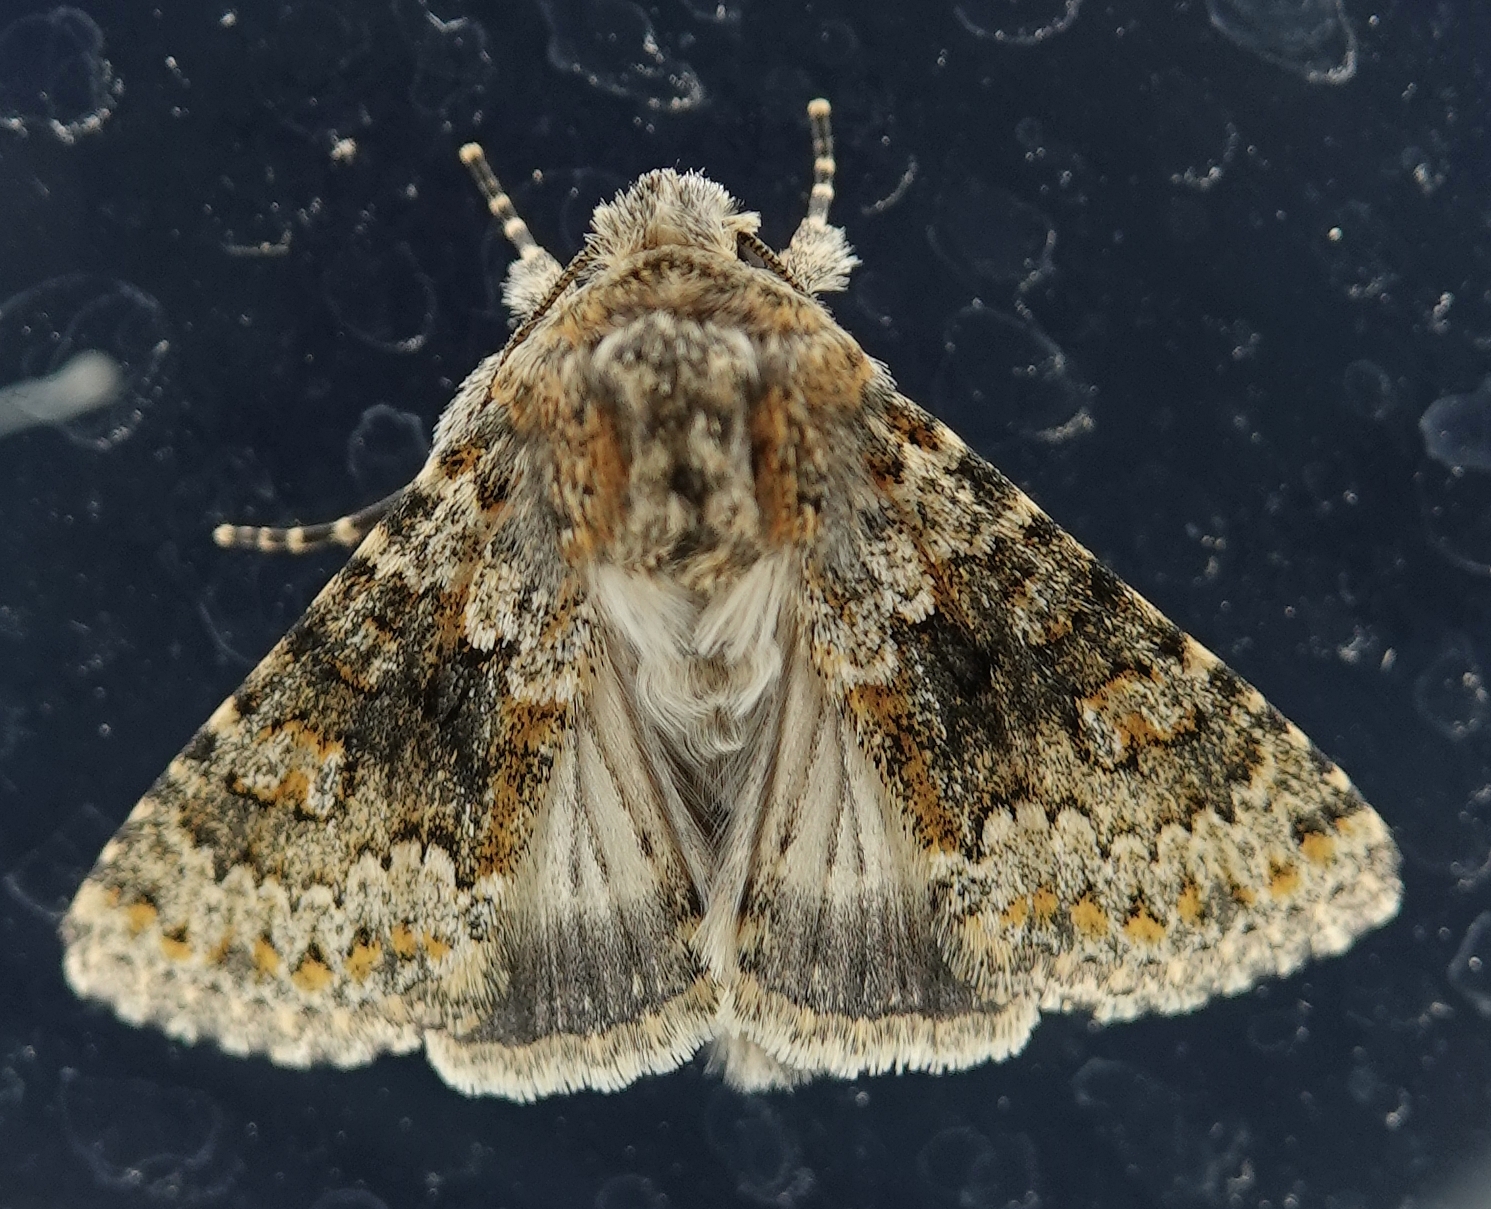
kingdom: Animalia
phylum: Arthropoda
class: Insecta
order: Lepidoptera
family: Noctuidae
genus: Hecatera
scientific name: Hecatera dysodea
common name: Small ranunculus
